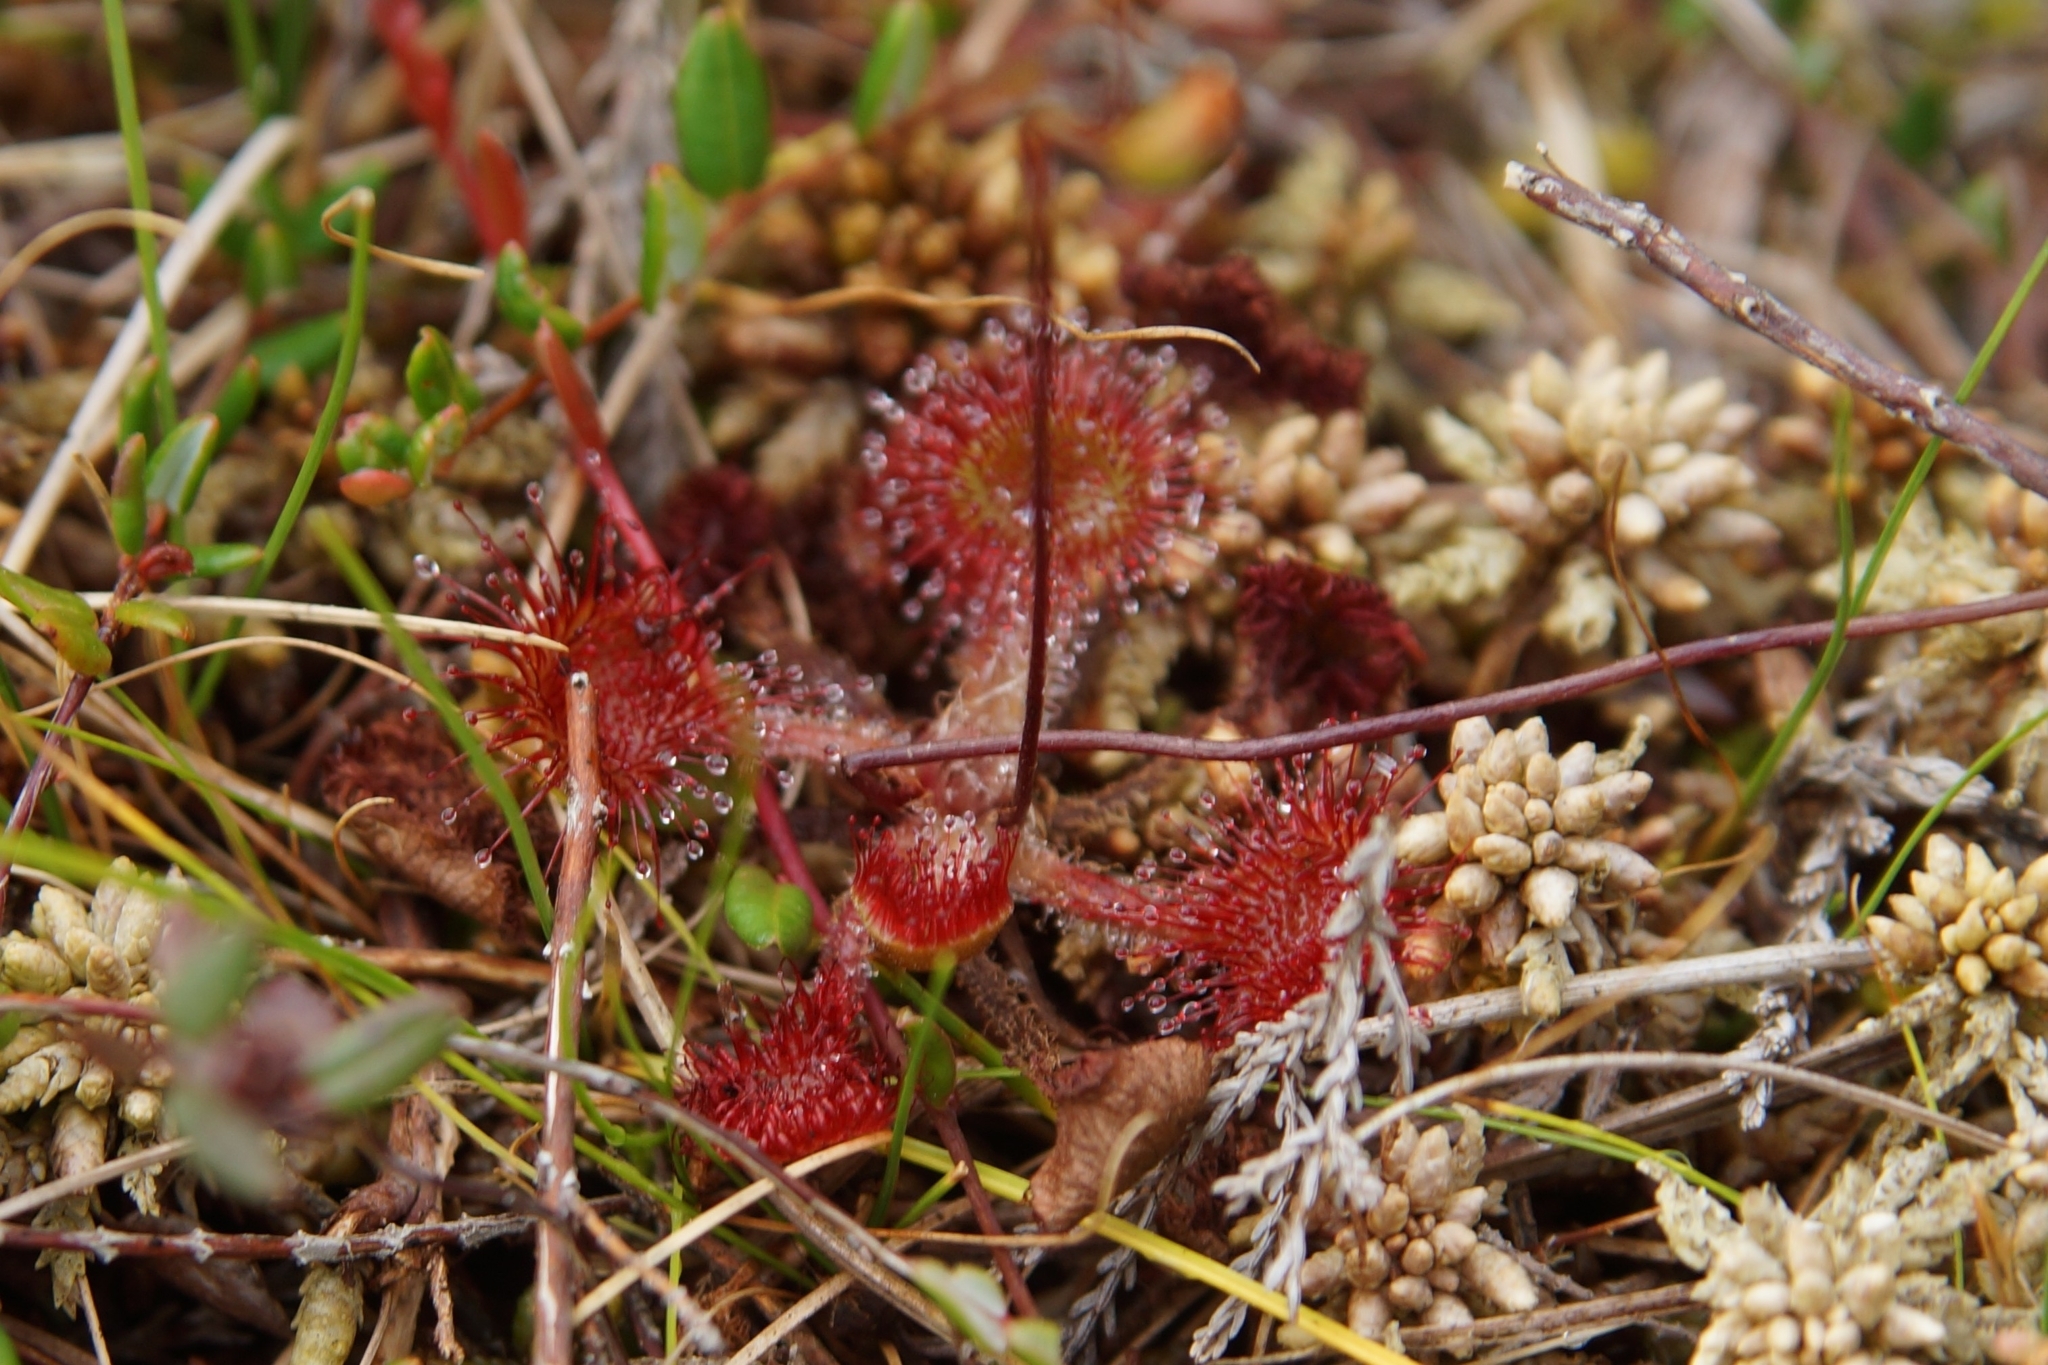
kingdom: Plantae
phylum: Tracheophyta
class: Magnoliopsida
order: Caryophyllales
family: Droseraceae
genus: Drosera
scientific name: Drosera rotundifolia
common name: Round-leaved sundew
